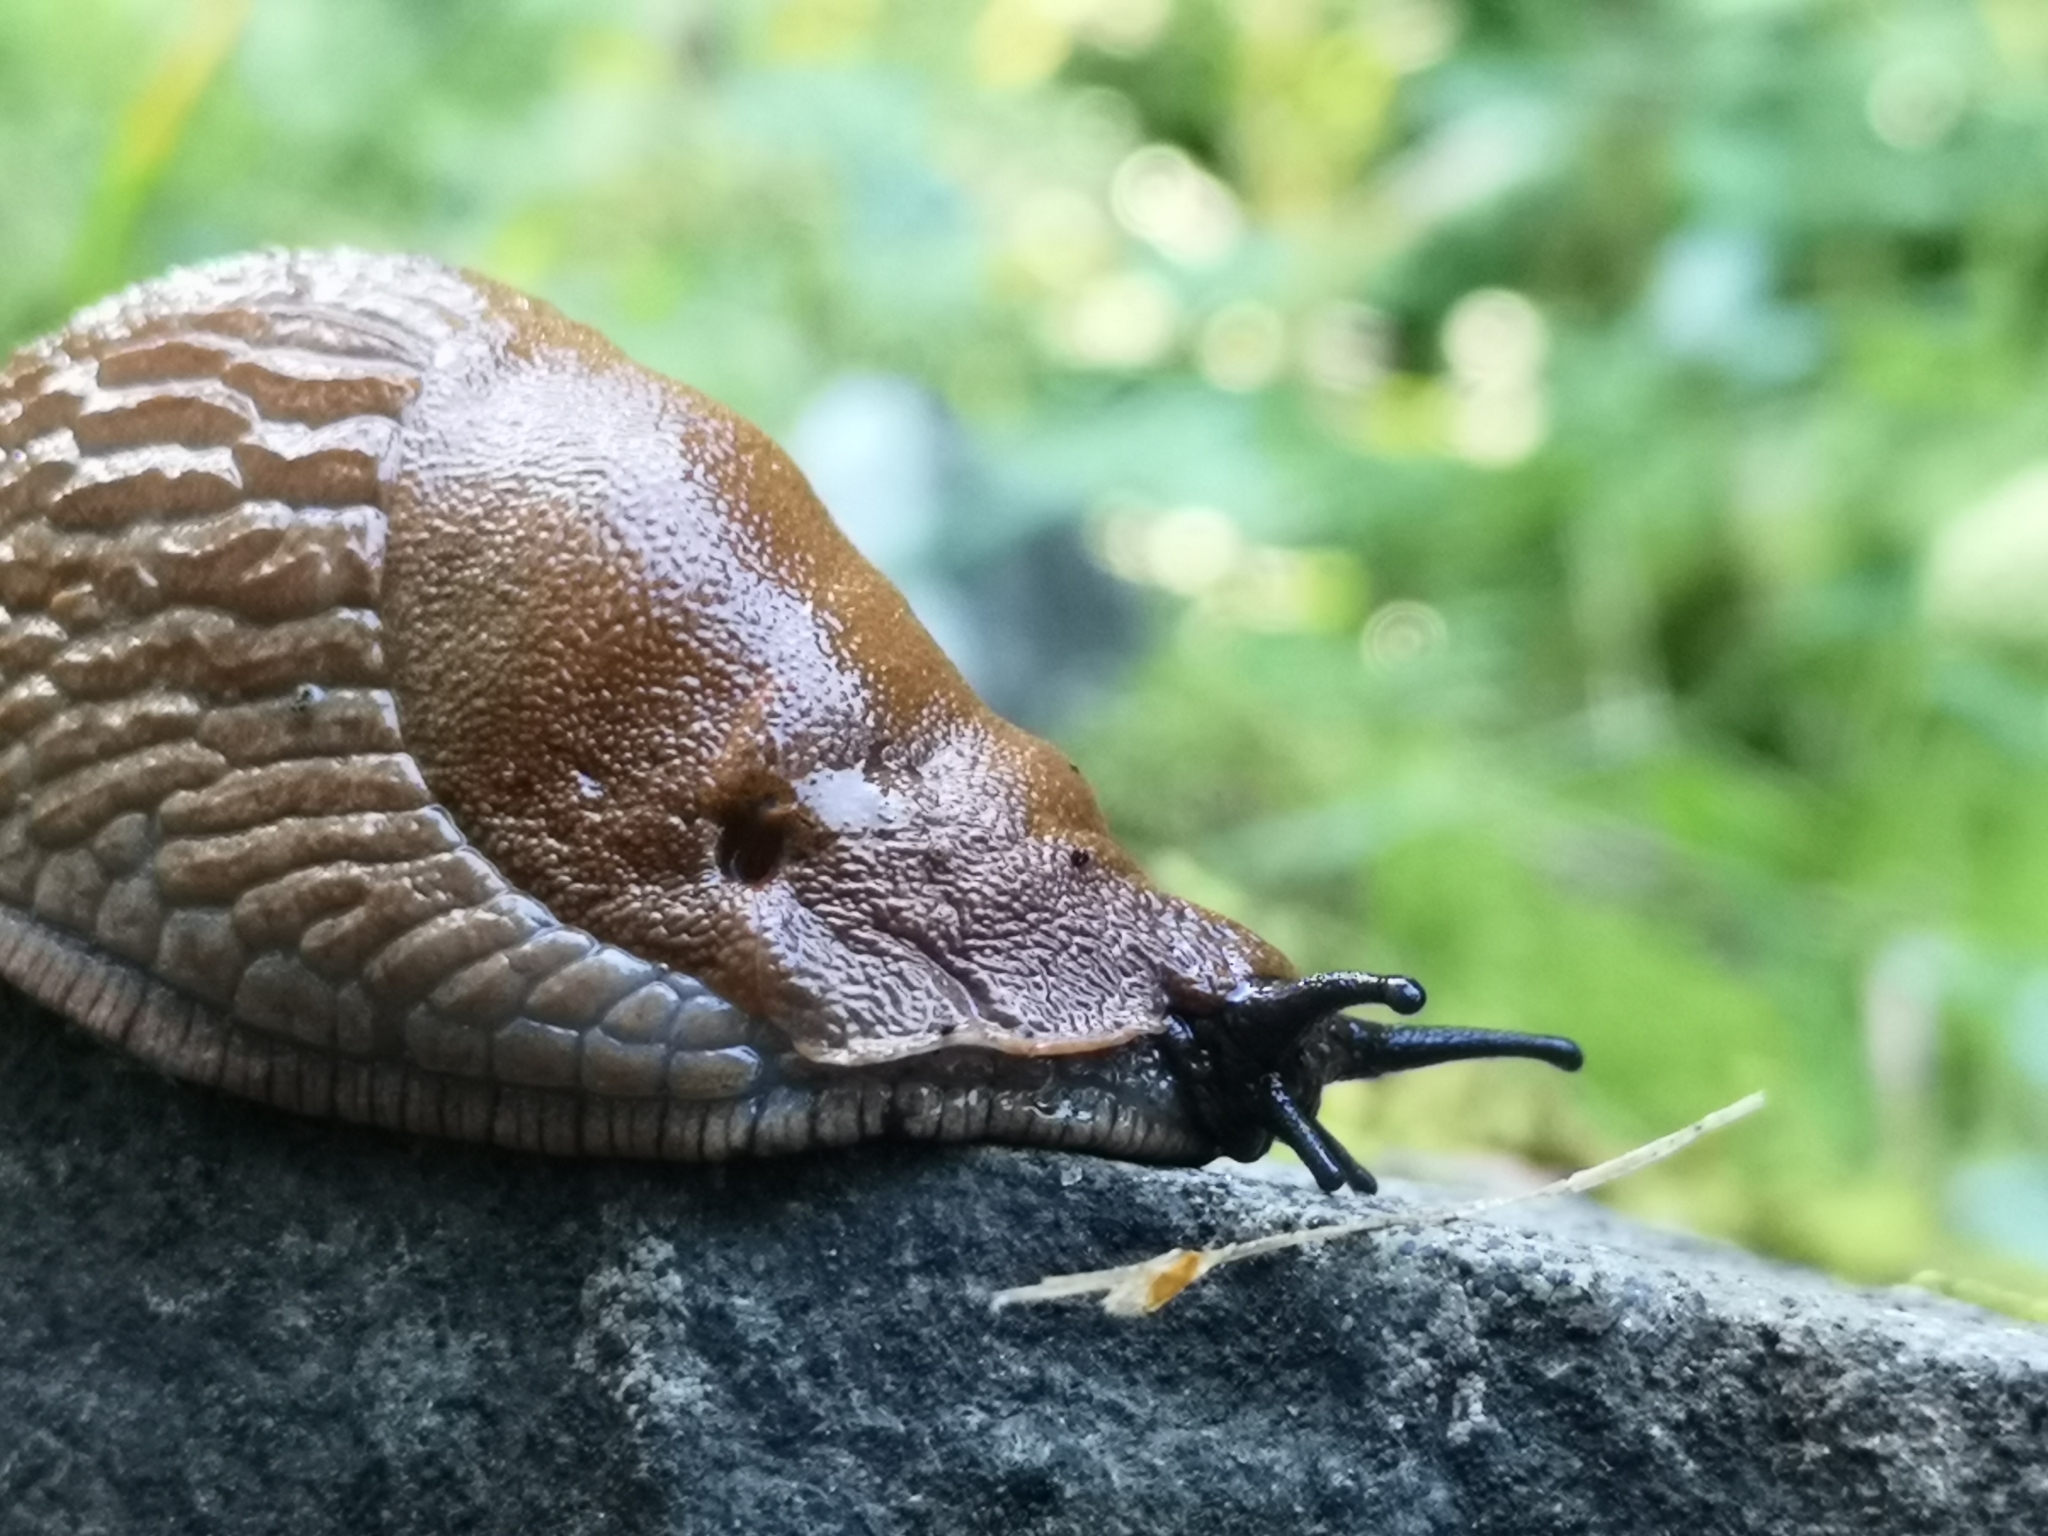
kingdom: Animalia
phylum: Mollusca
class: Gastropoda
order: Stylommatophora
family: Arionidae
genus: Arion
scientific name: Arion vulgaris
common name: Lusitanian slug
